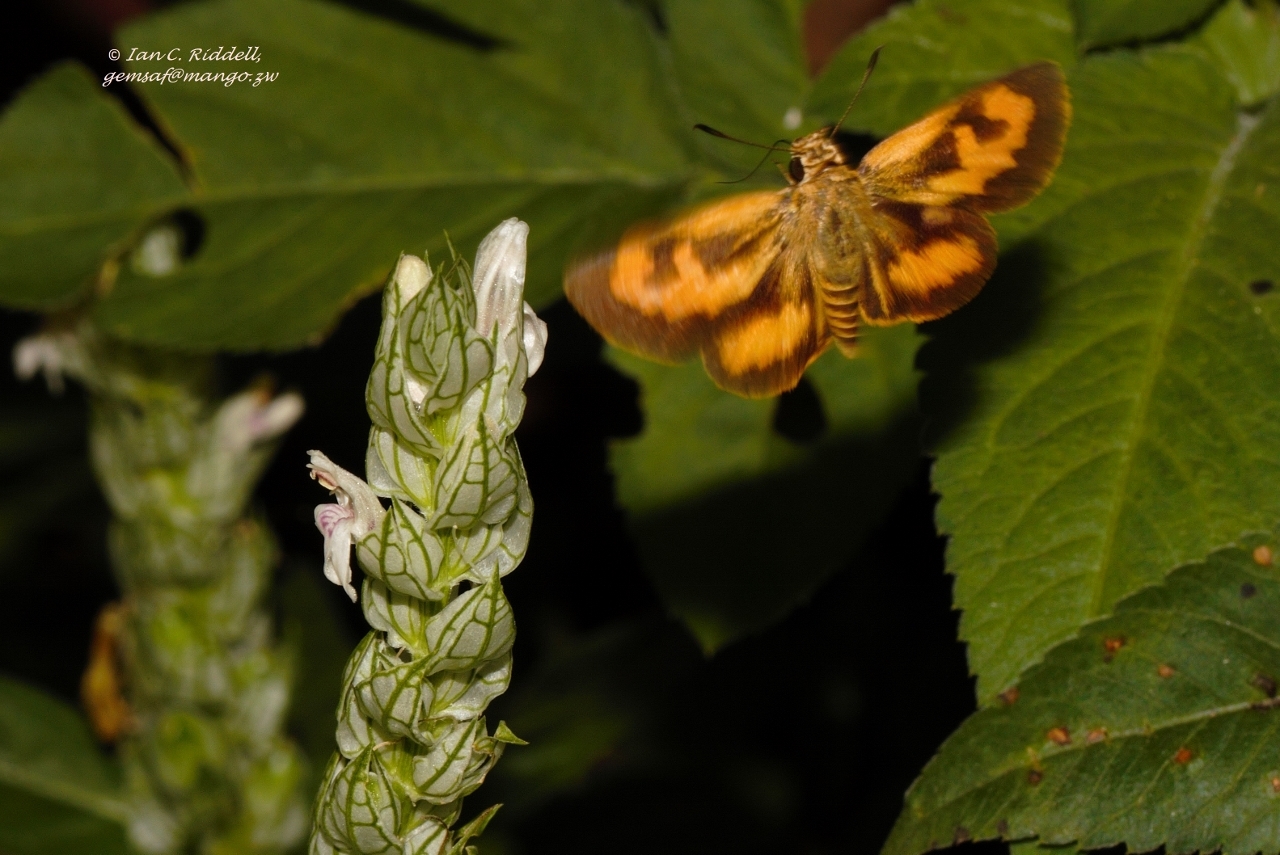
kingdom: Animalia
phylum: Arthropoda
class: Insecta
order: Lepidoptera
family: Hesperiidae
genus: Acada
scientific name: Acada biseriatus
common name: Axehead orange
